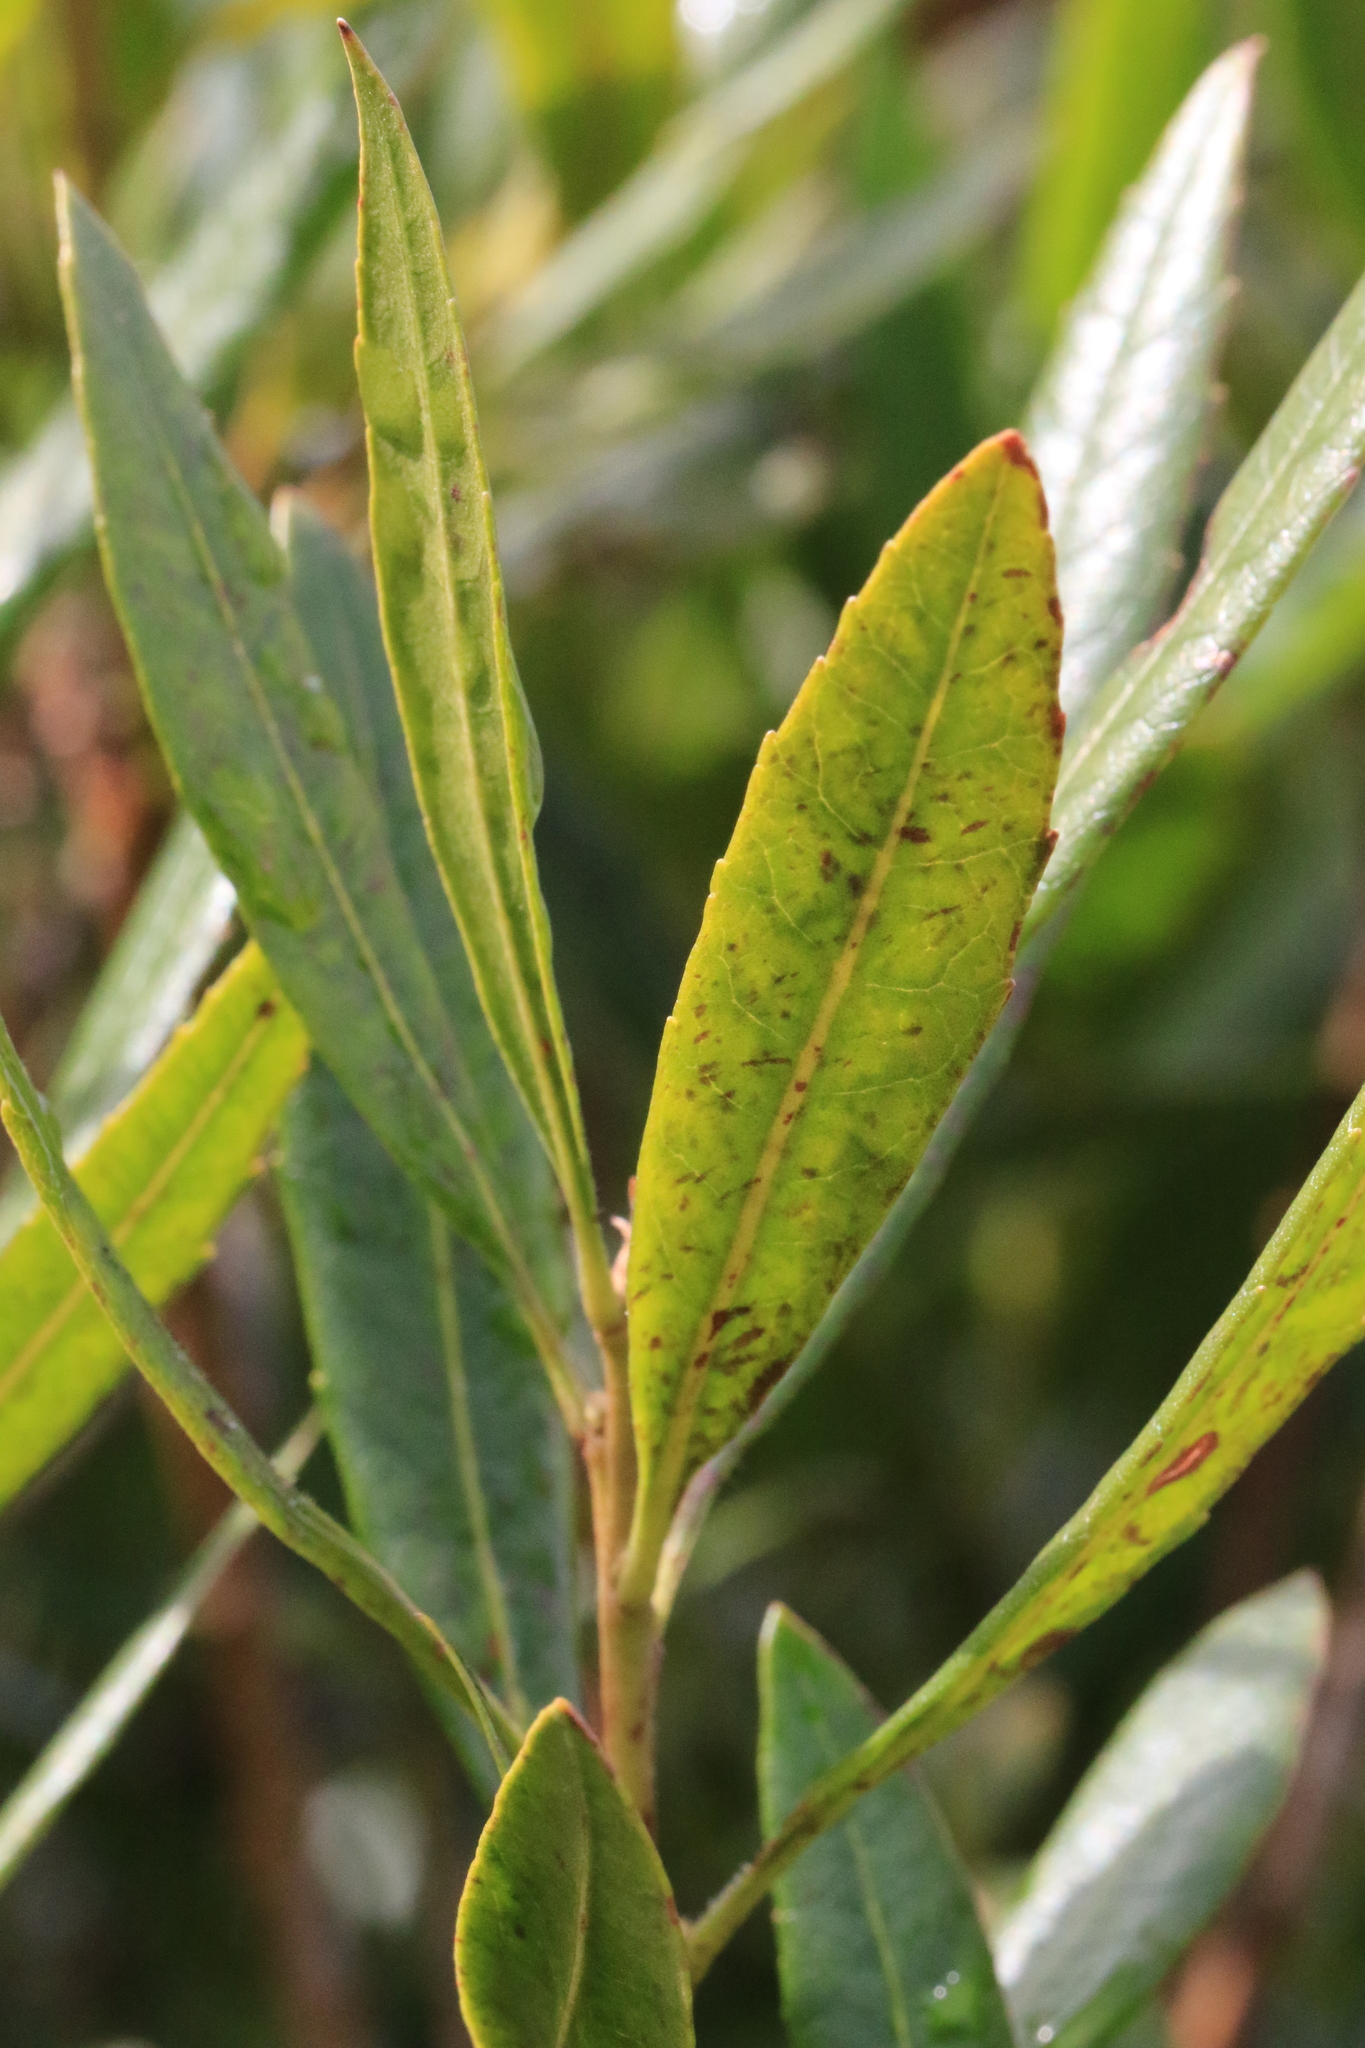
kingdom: Plantae
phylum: Tracheophyta
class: Magnoliopsida
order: Fagales
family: Myricaceae
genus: Morella
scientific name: Morella californica
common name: California wax-myrtle
